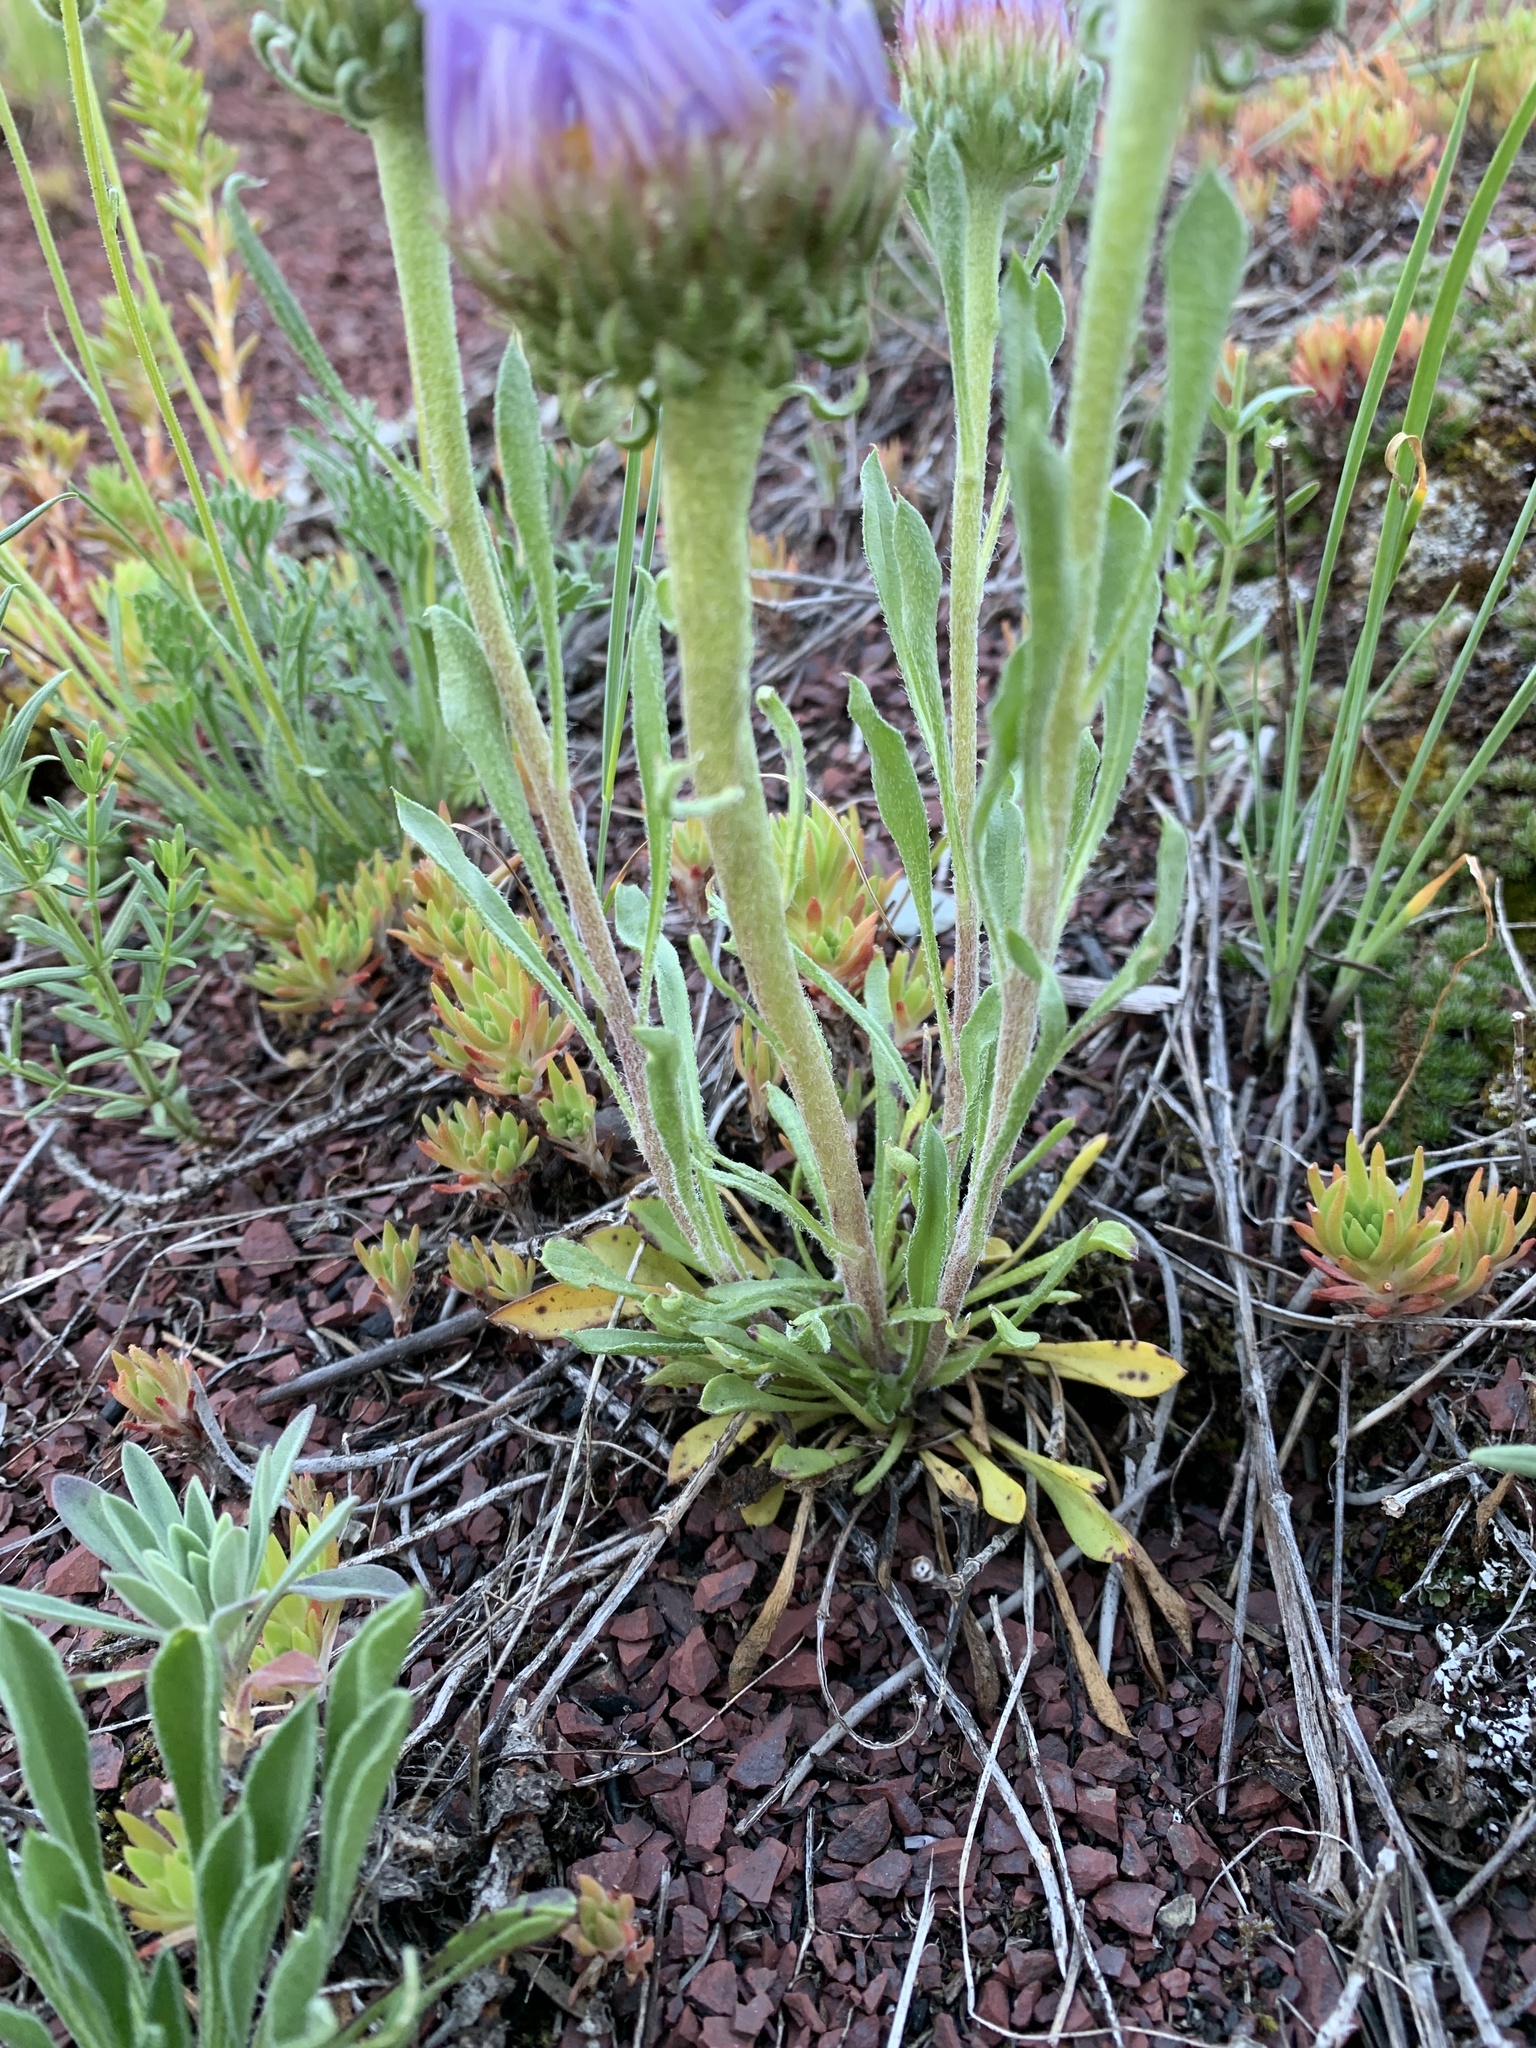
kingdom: Plantae
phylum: Tracheophyta
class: Magnoliopsida
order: Asterales
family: Asteraceae
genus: Townsendia
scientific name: Townsendia parryi
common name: Parry's townsend daisy
